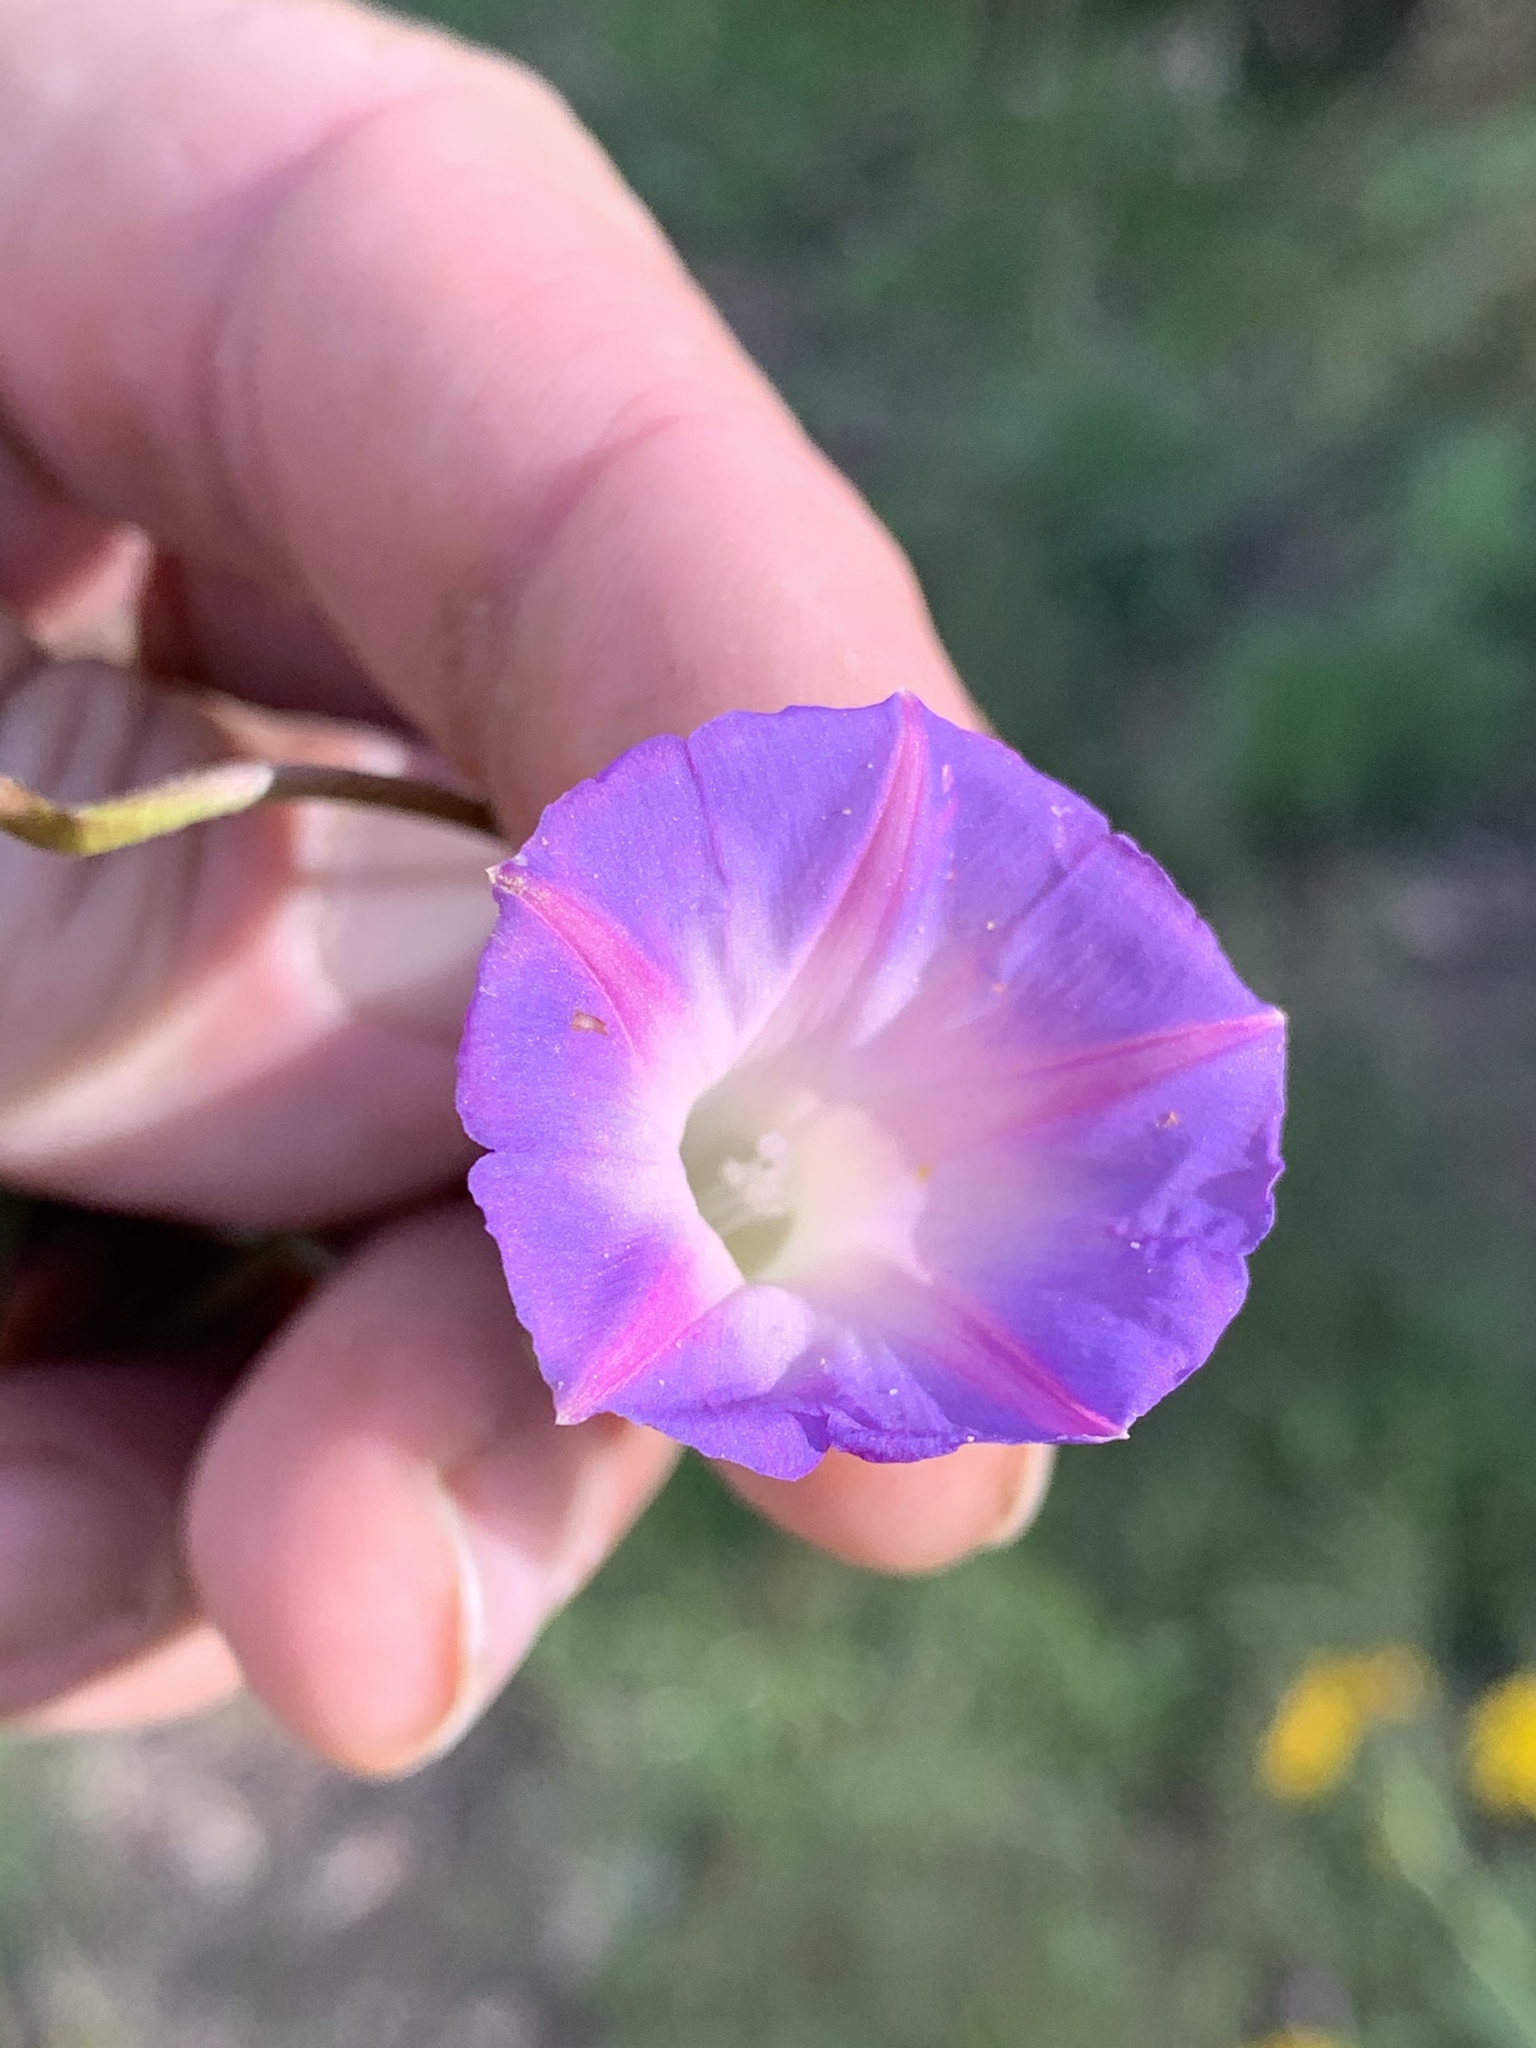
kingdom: Plantae
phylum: Tracheophyta
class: Magnoliopsida
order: Solanales
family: Convolvulaceae
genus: Ipomoea
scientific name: Ipomoea purpurea
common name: Common morning-glory
